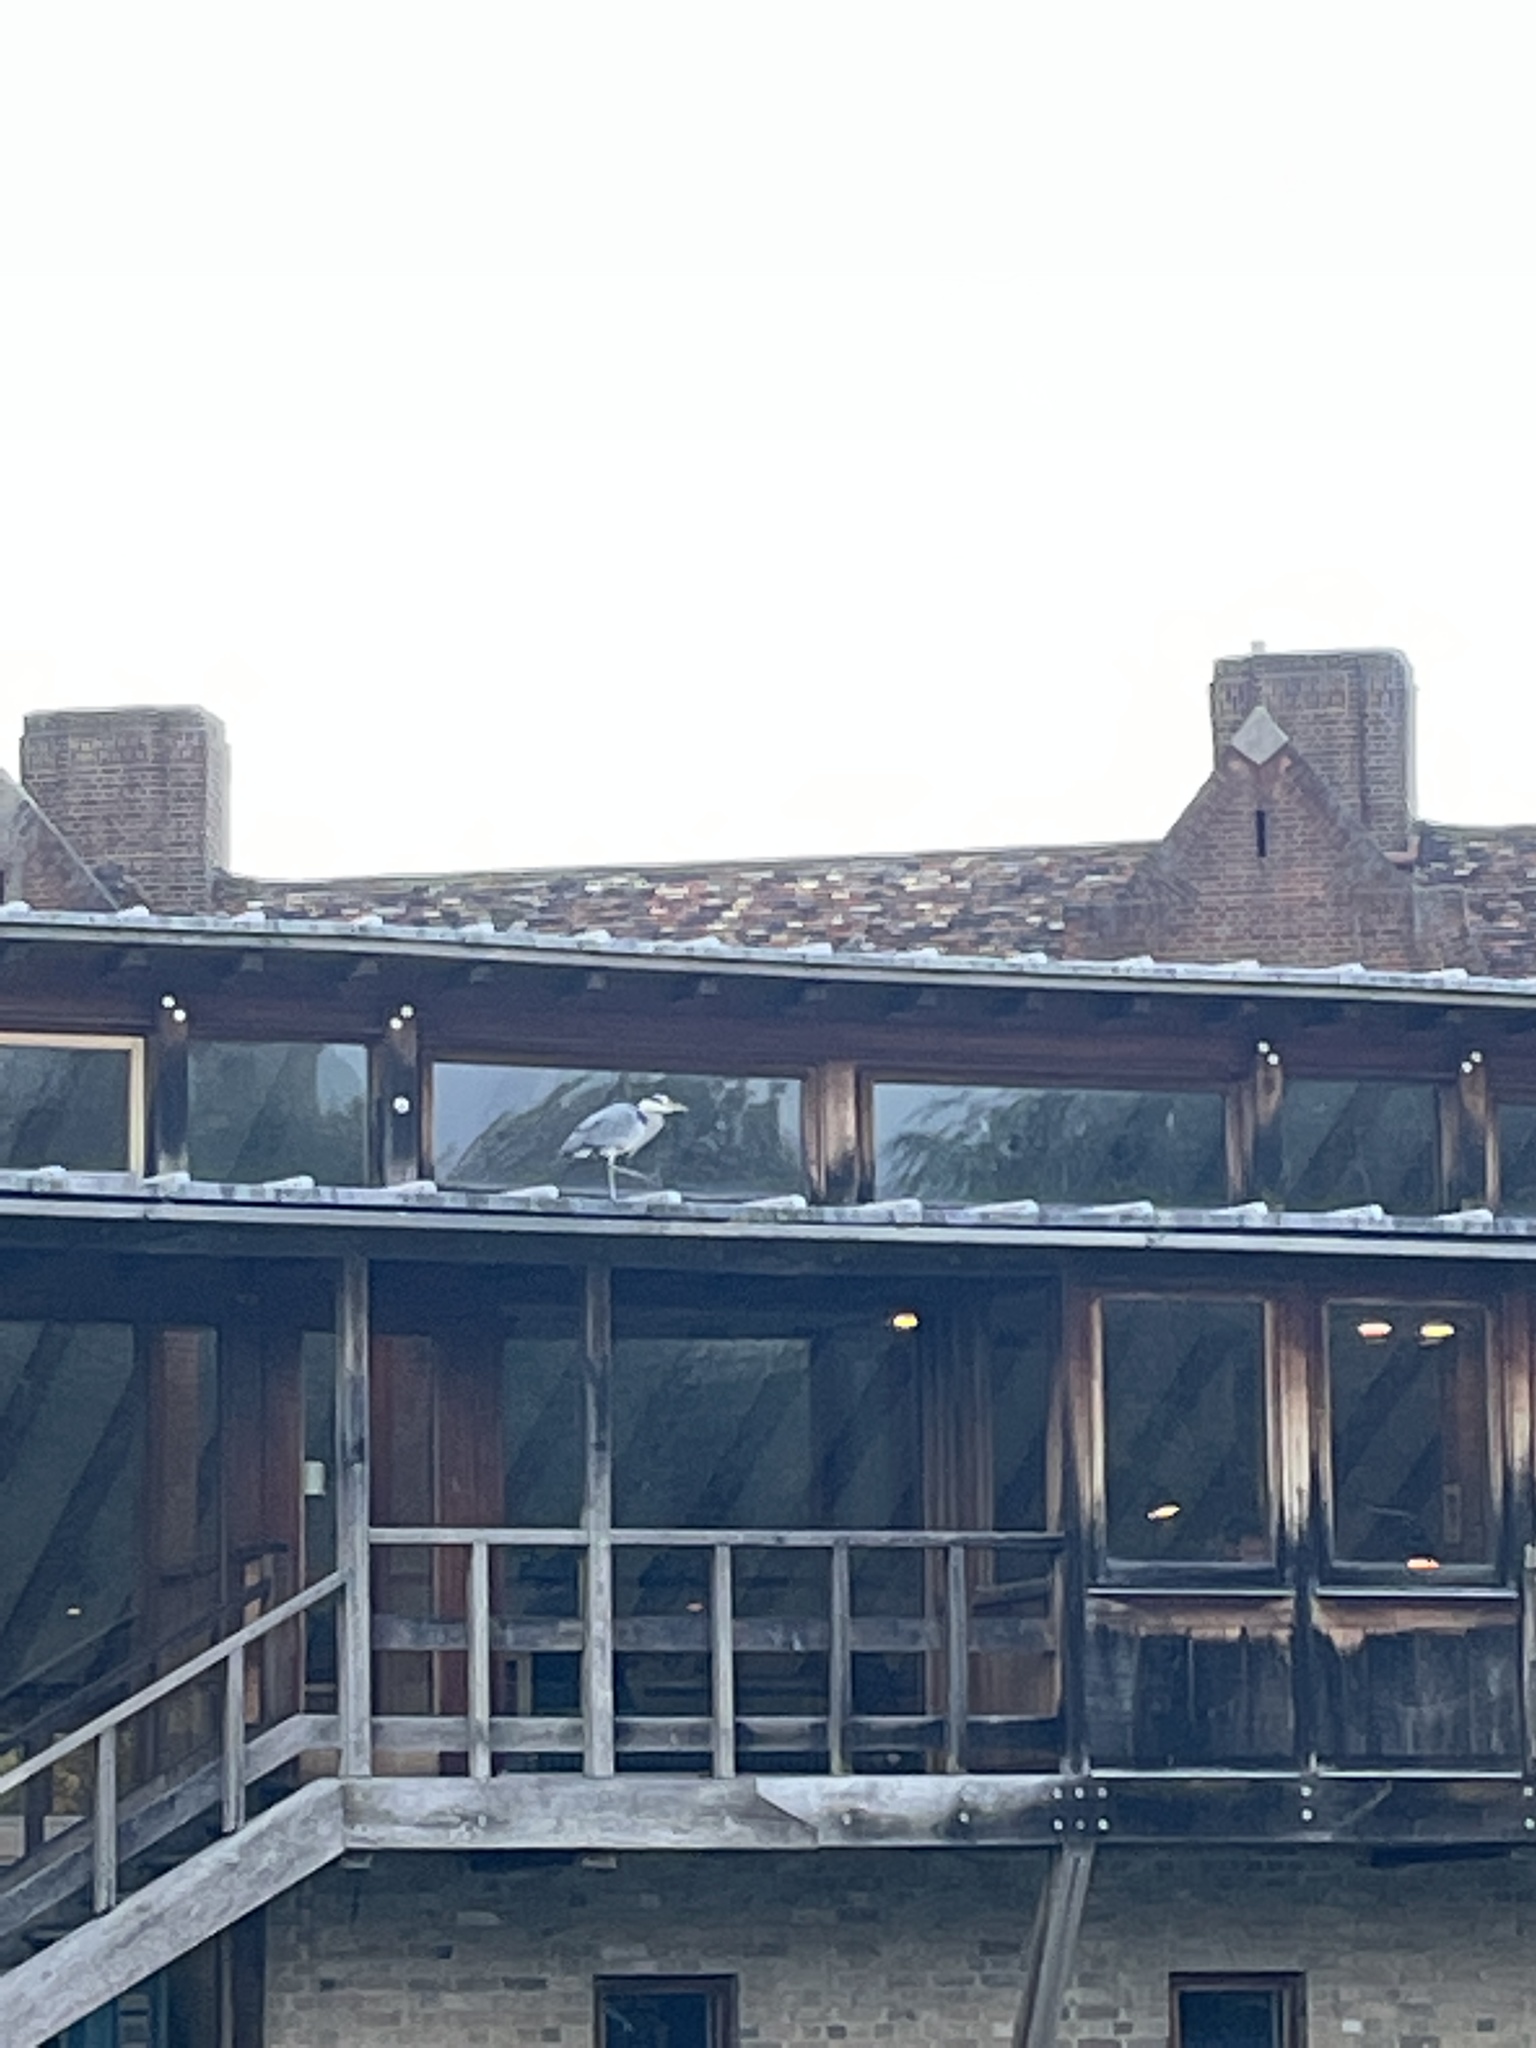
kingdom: Animalia
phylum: Chordata
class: Aves
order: Pelecaniformes
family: Ardeidae
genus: Ardea
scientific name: Ardea cinerea
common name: Grey heron
